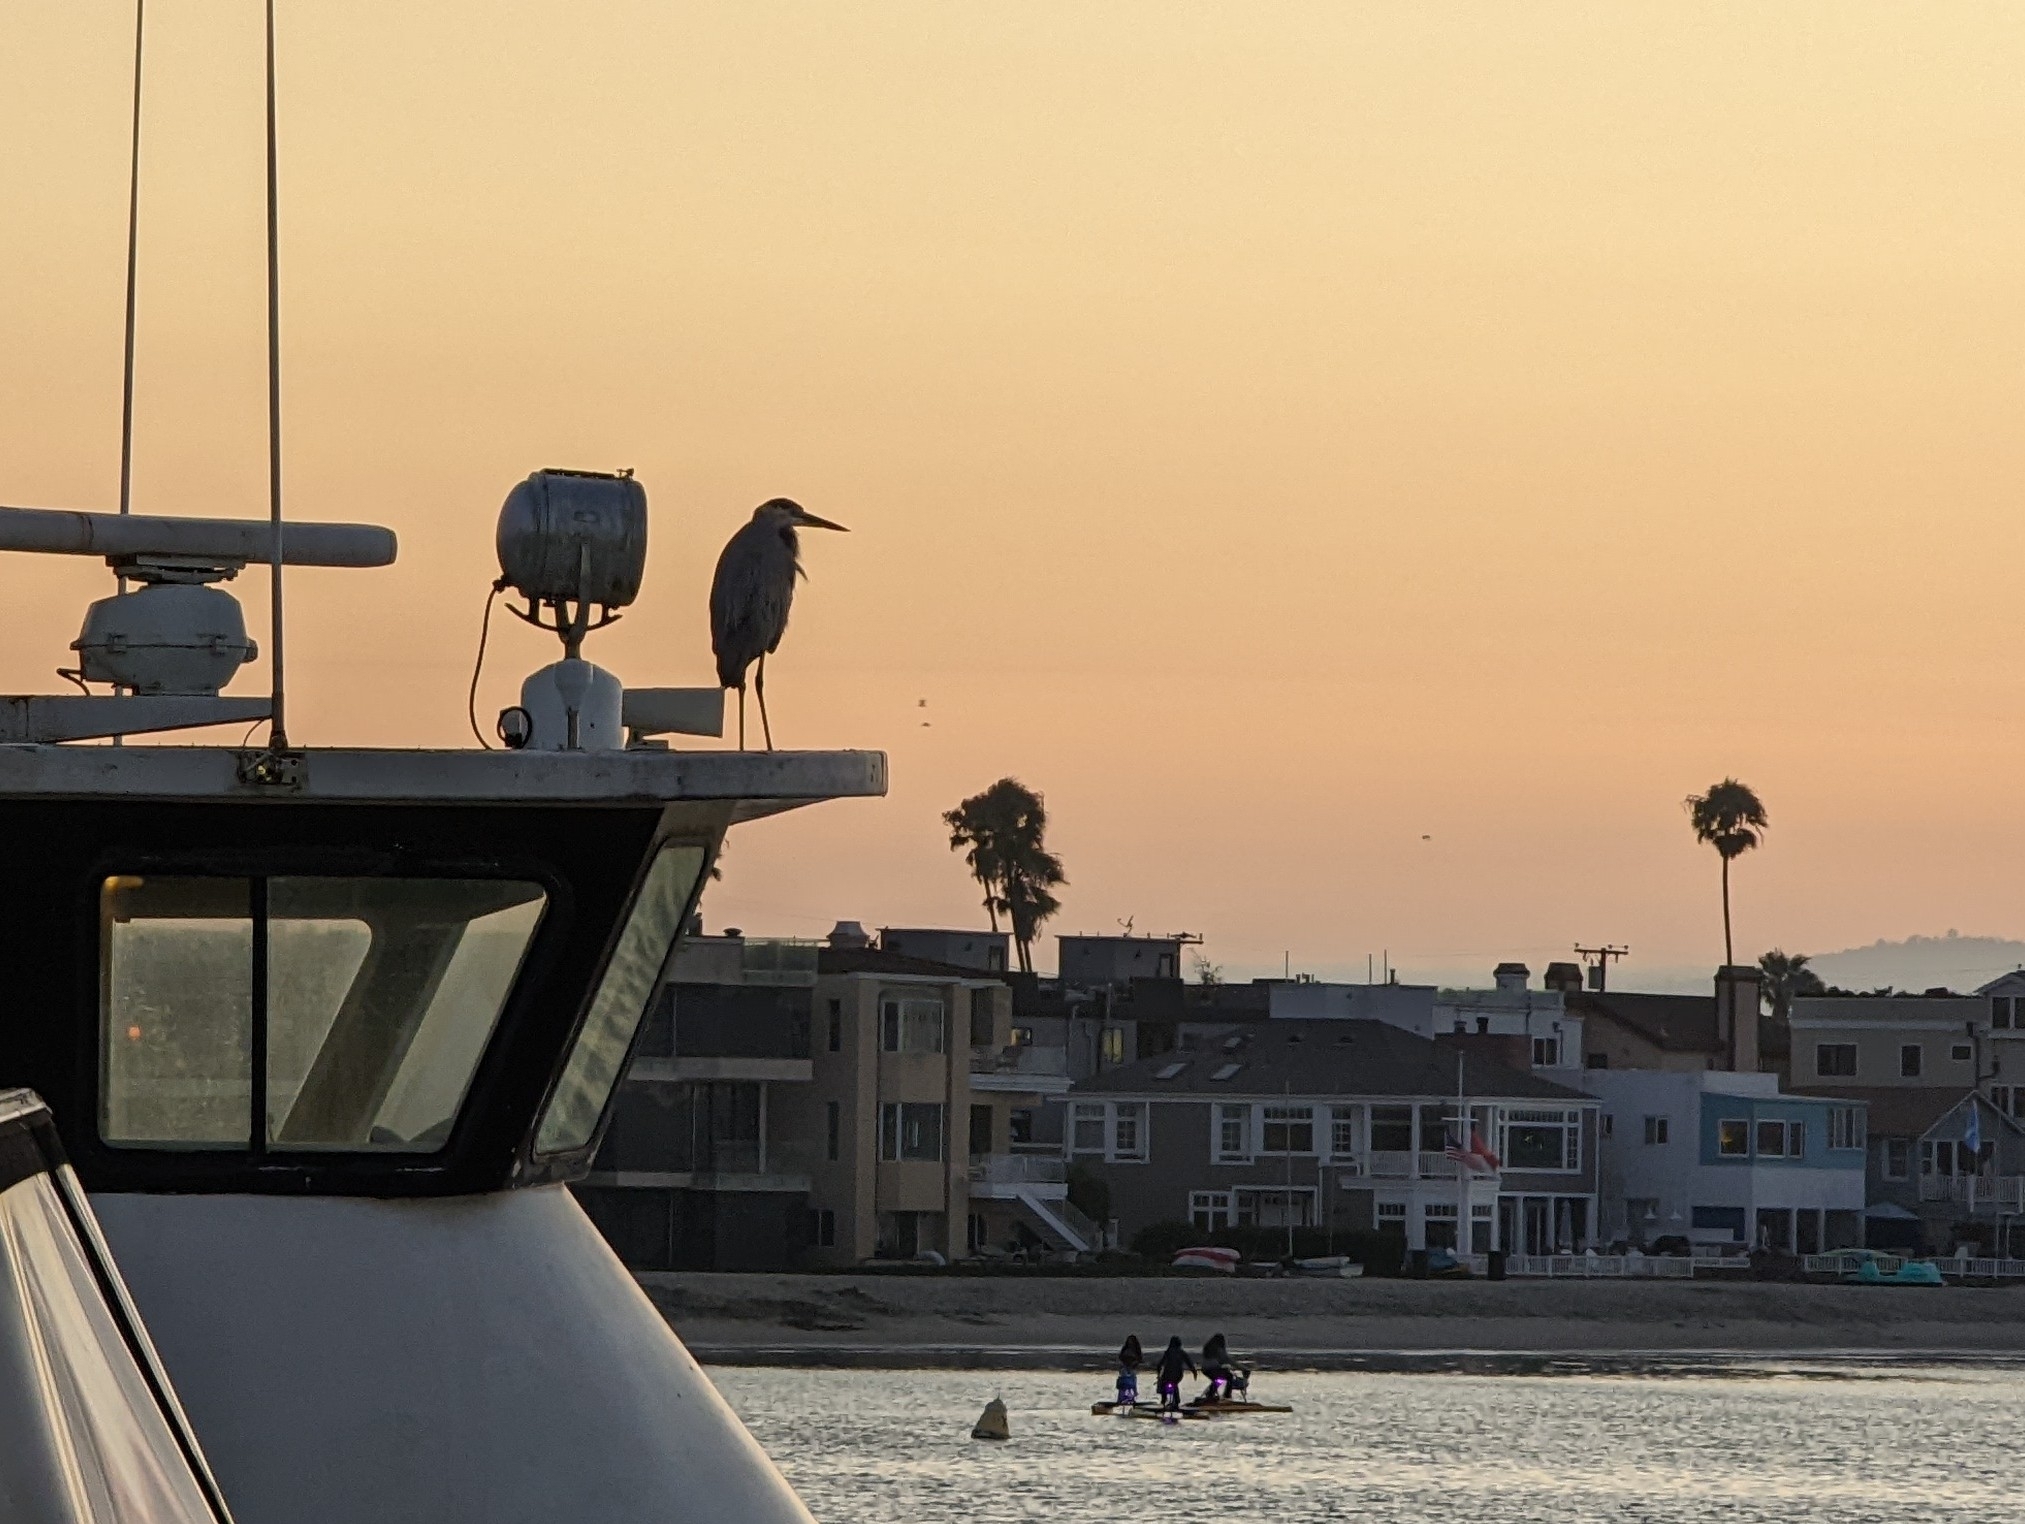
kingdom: Animalia
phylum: Chordata
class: Aves
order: Pelecaniformes
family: Ardeidae
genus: Ardea
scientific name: Ardea herodias
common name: Great blue heron
